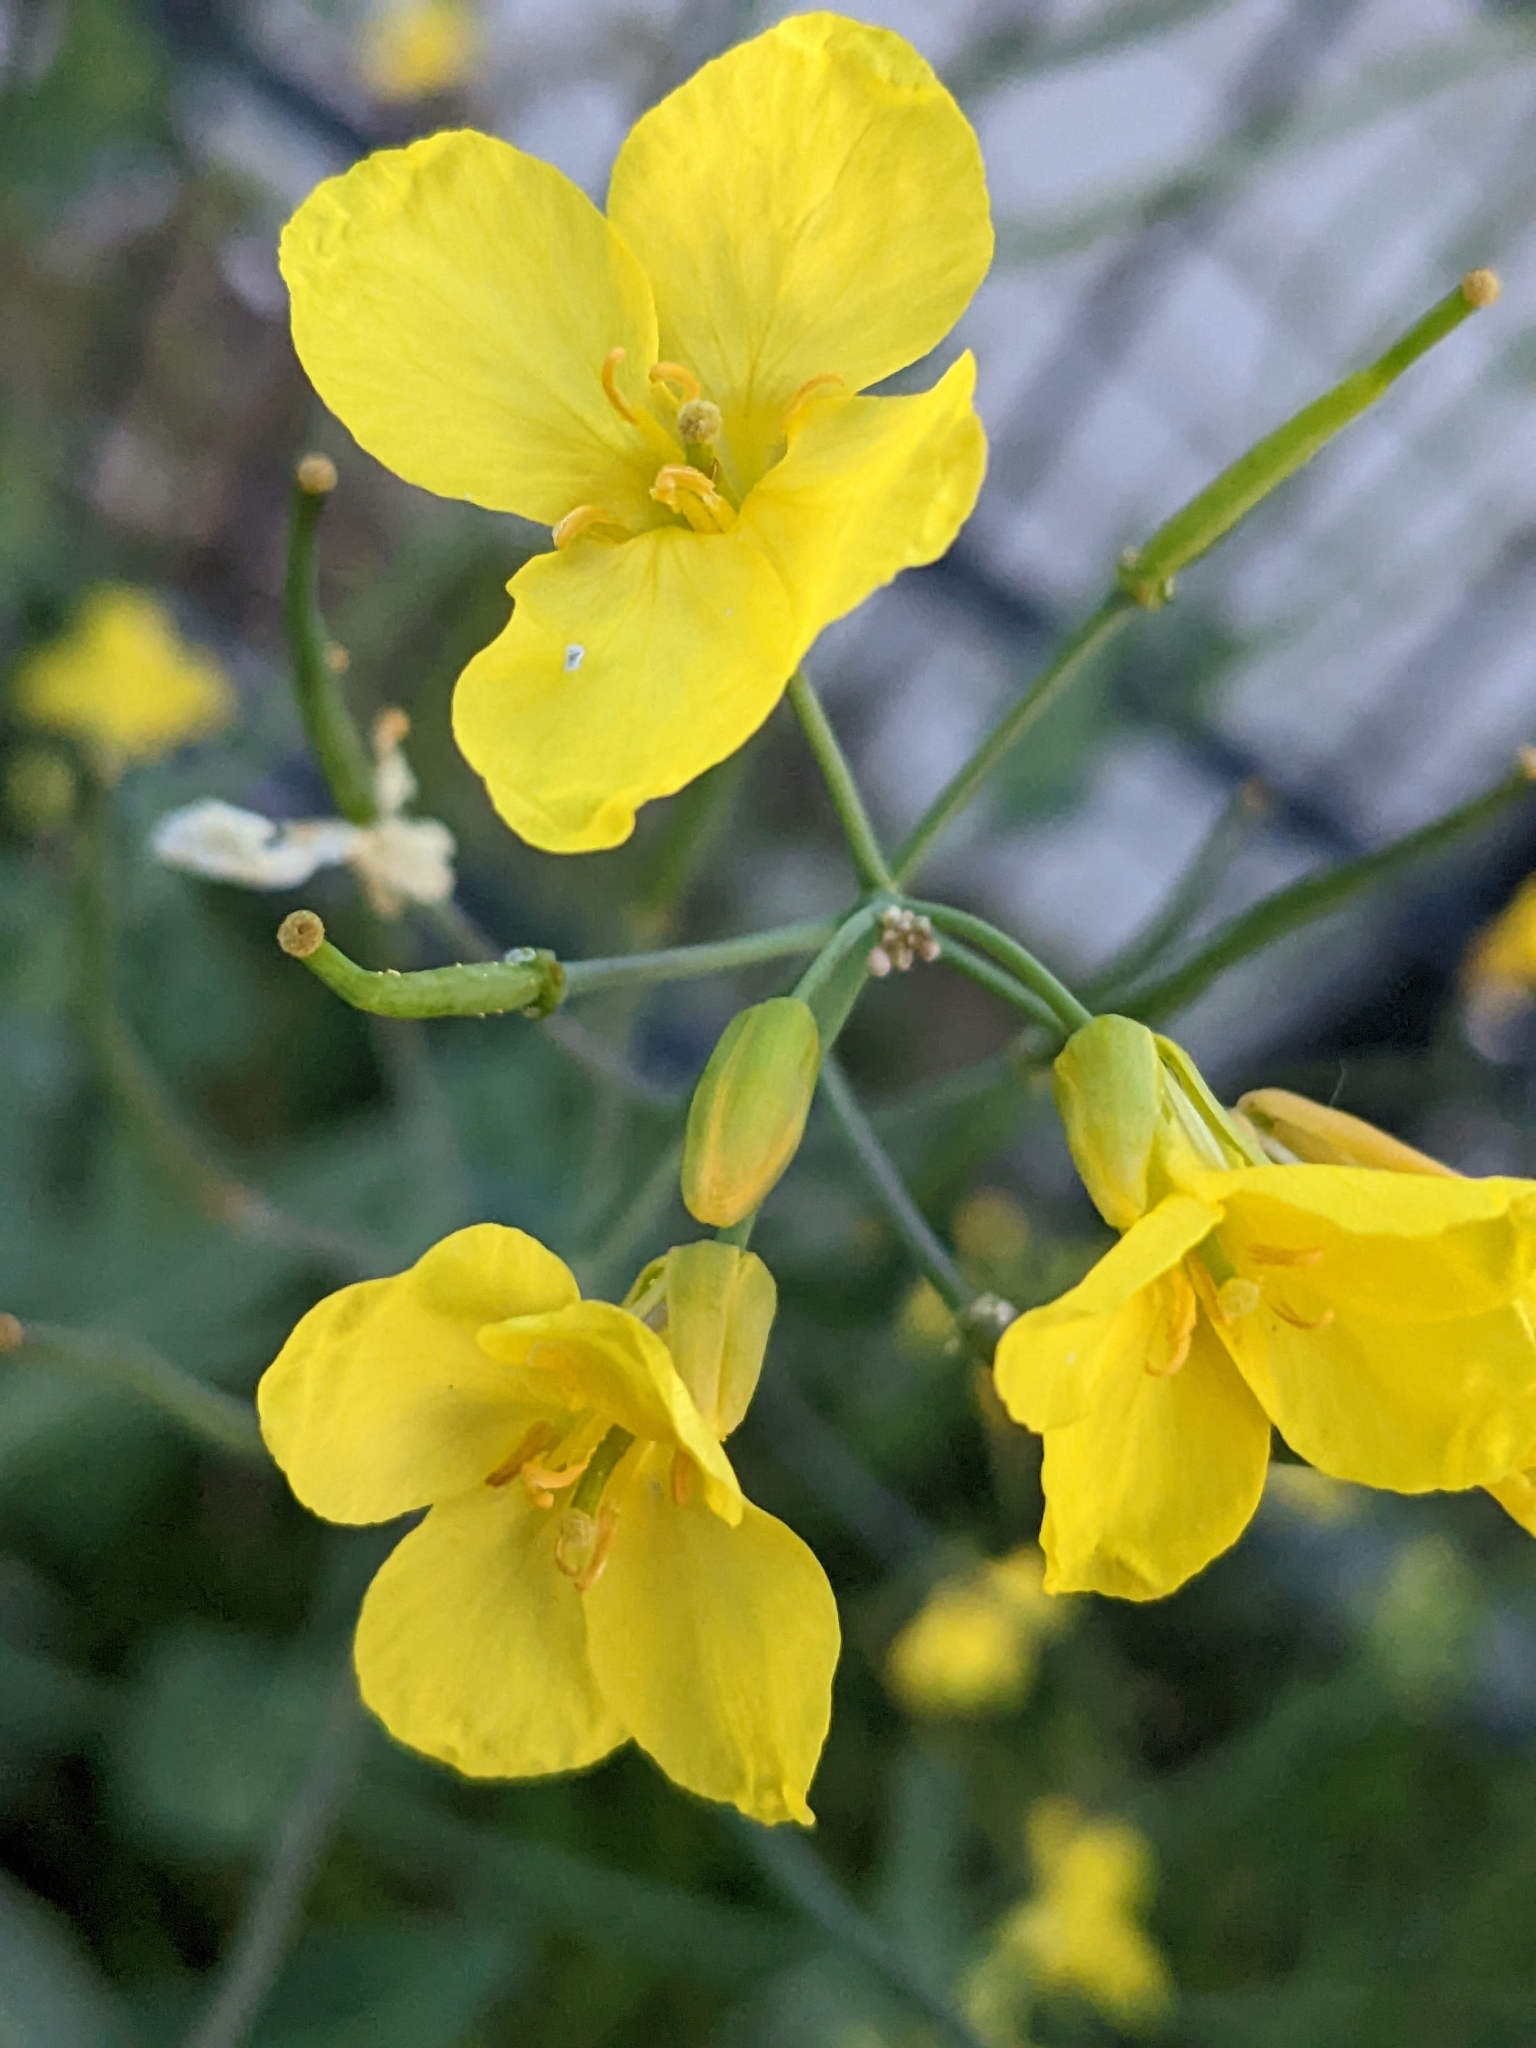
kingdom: Plantae
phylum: Tracheophyta
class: Magnoliopsida
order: Brassicales
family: Brassicaceae
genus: Brassica
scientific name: Brassica napus
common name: Rape
